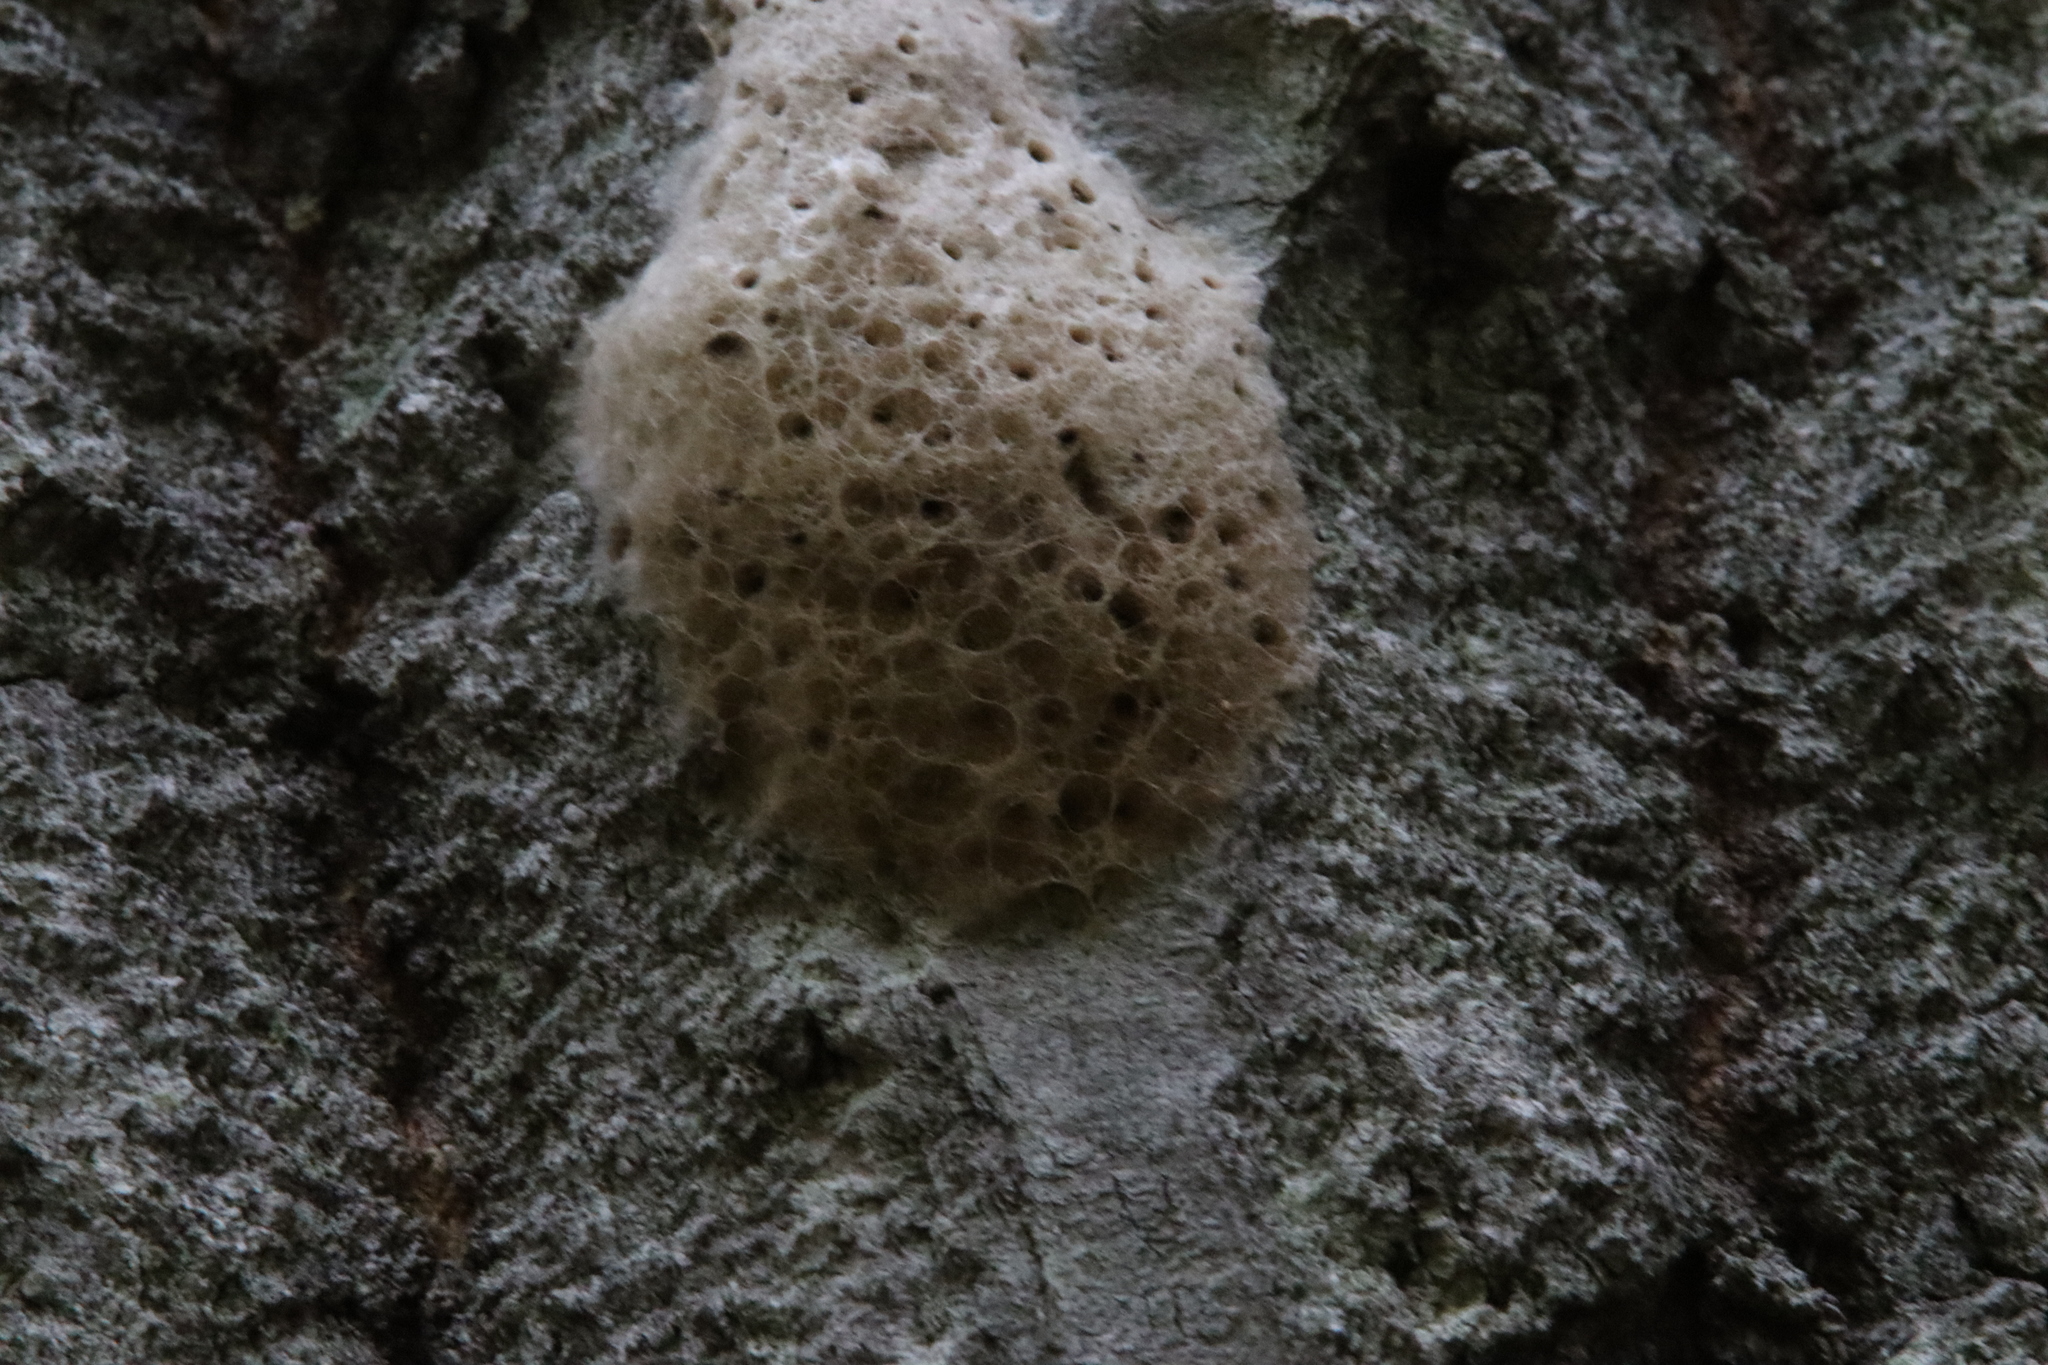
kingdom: Animalia
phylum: Arthropoda
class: Insecta
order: Lepidoptera
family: Erebidae
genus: Lymantria
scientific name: Lymantria dispar
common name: Gypsy moth
